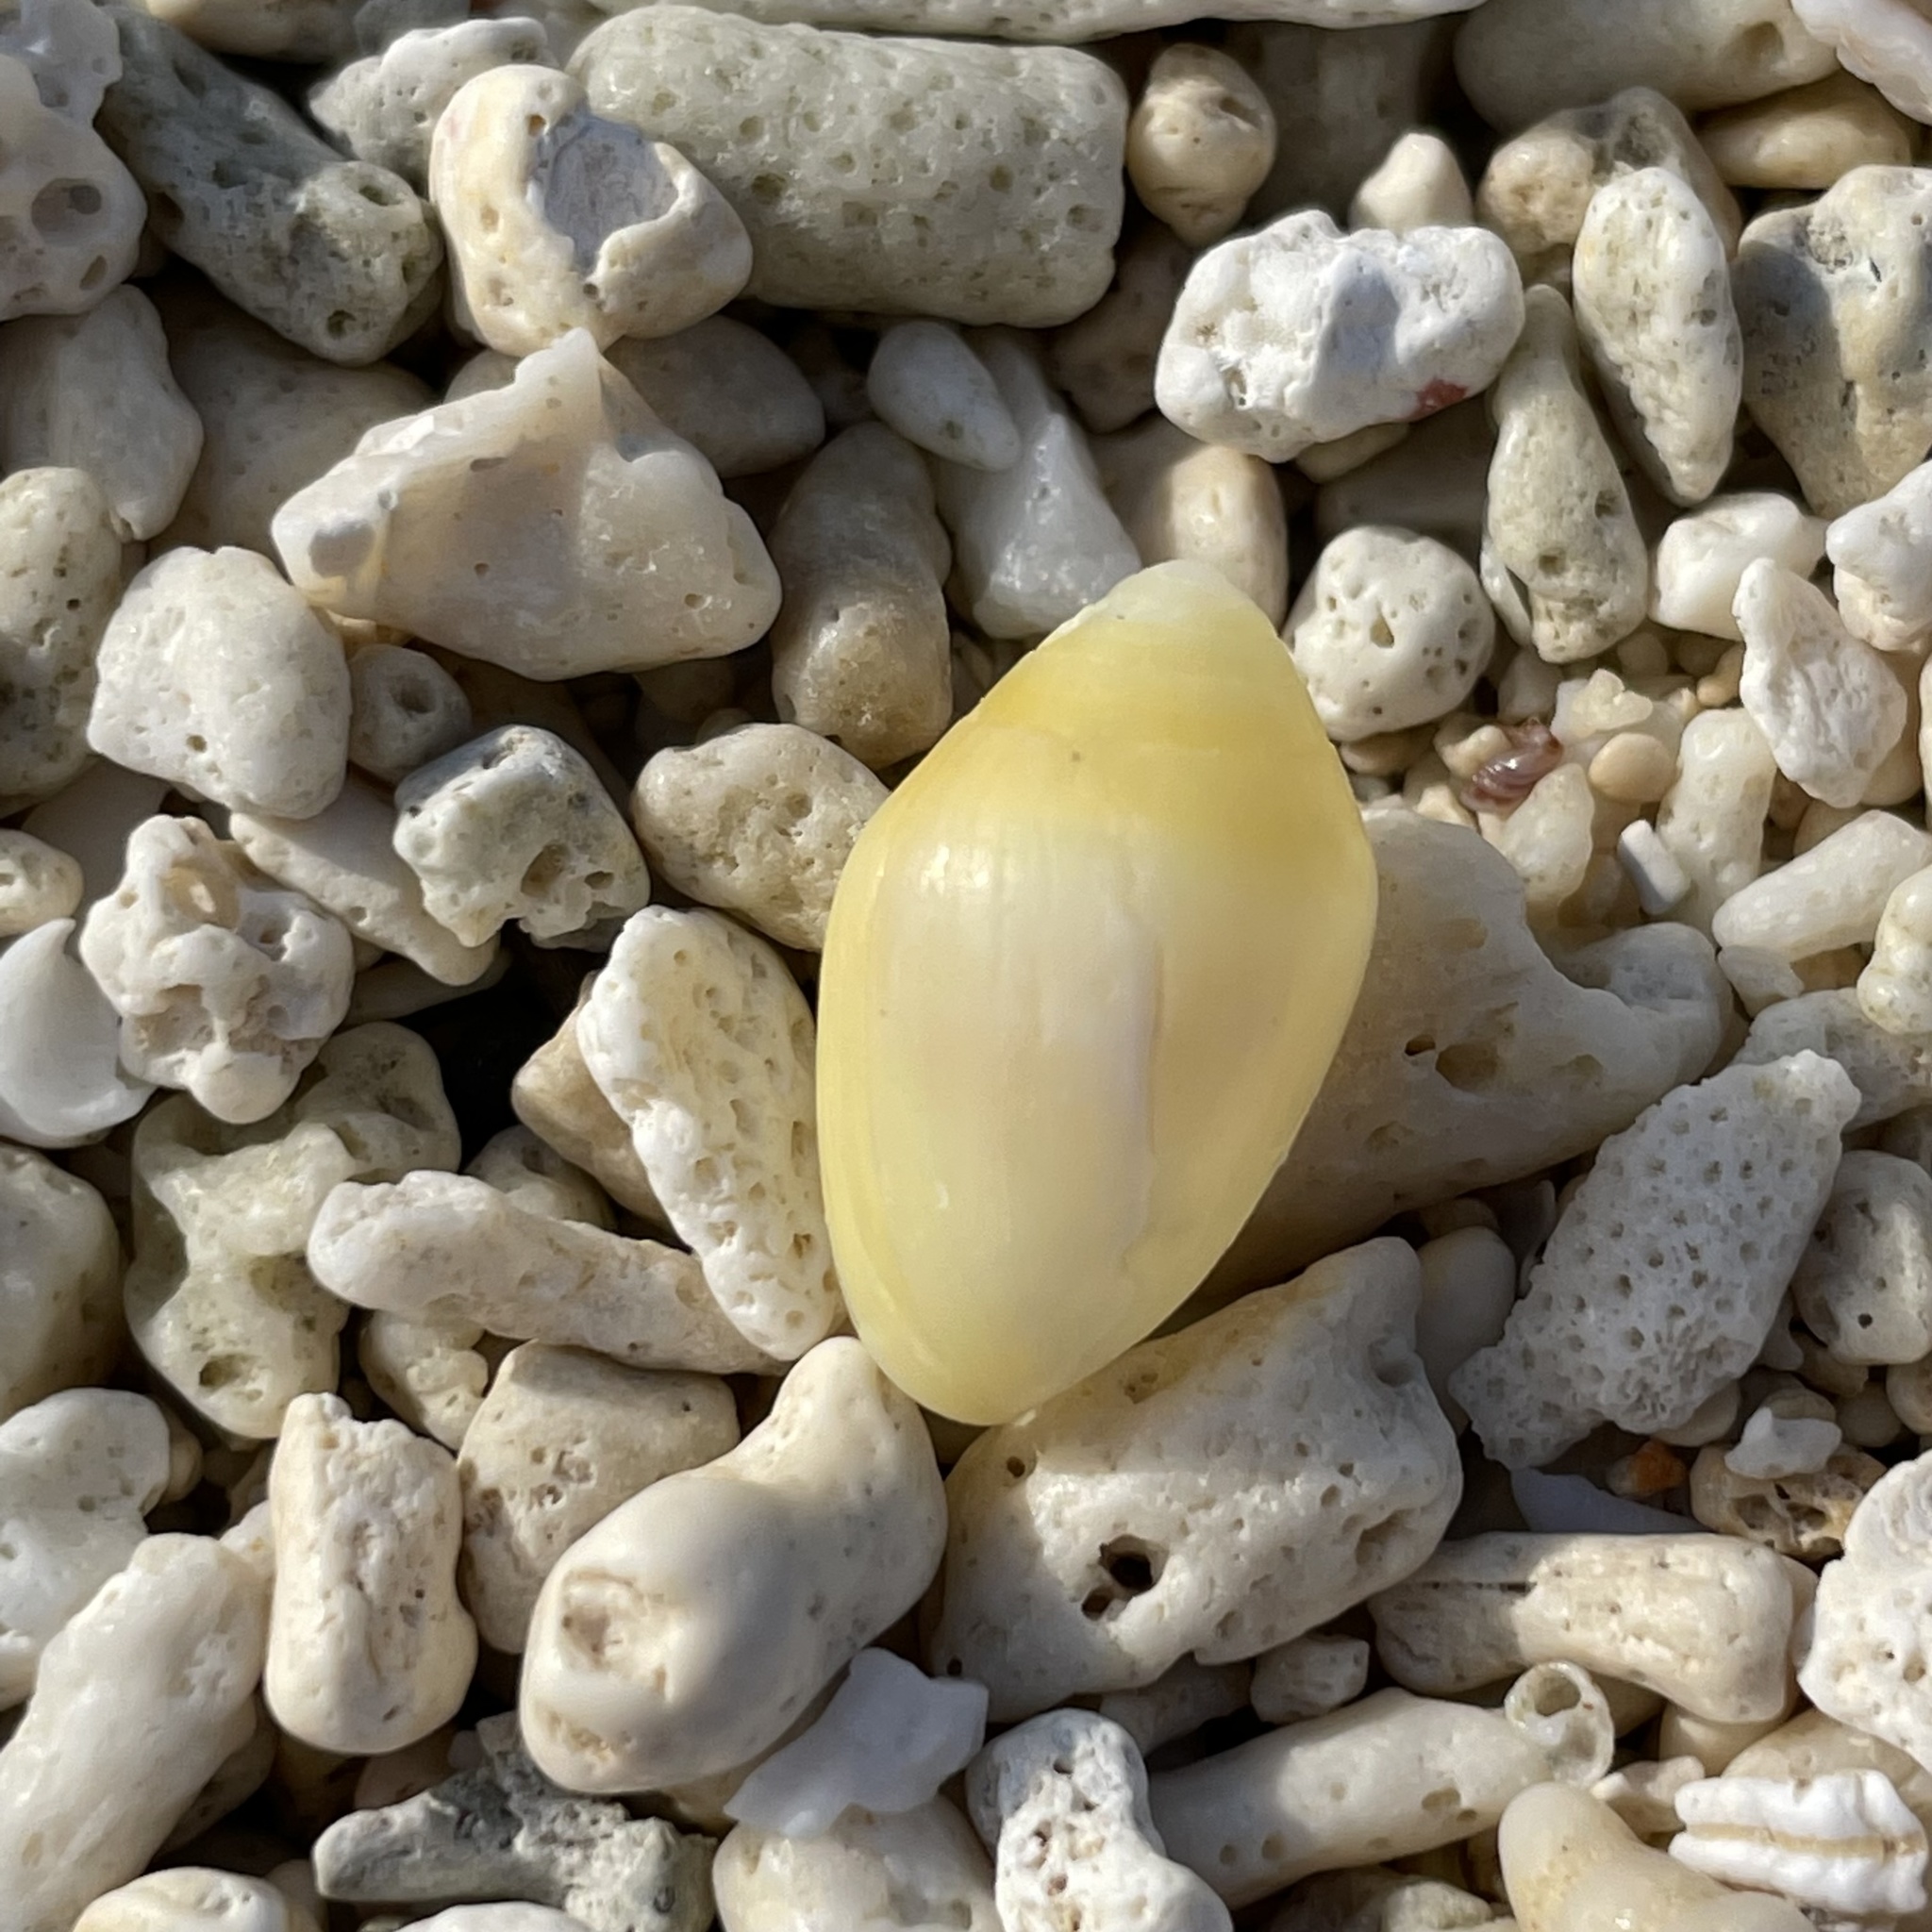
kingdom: Animalia
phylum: Mollusca
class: Gastropoda
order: Ellobiida
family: Ellobiidae
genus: Melampus
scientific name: Melampus flavus
